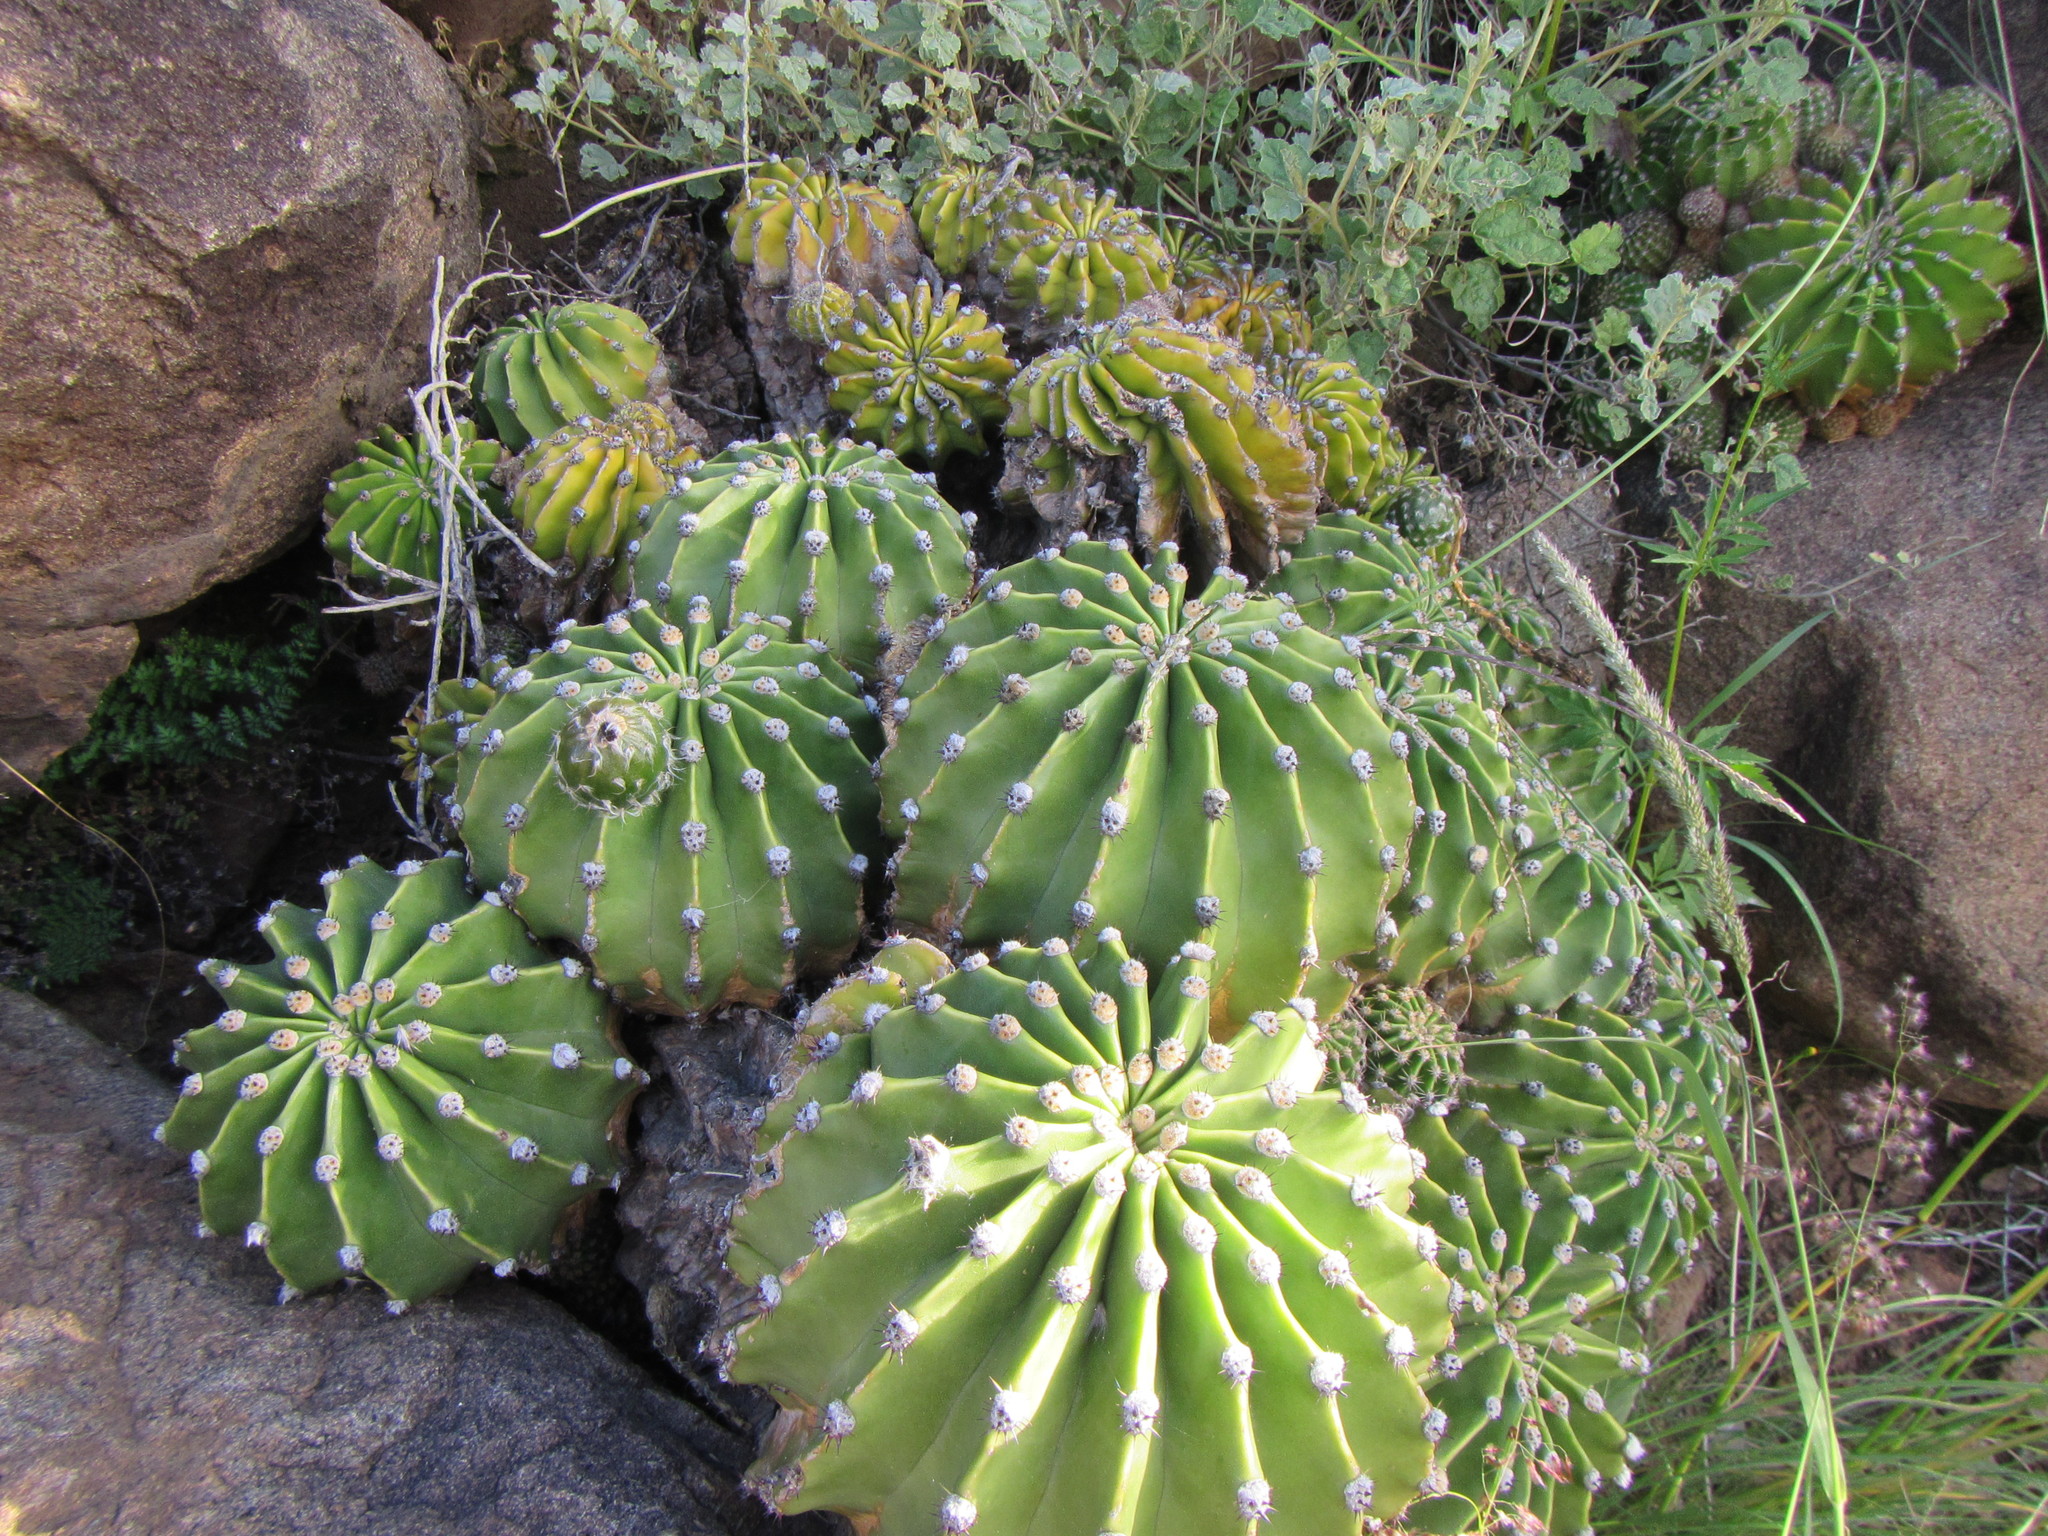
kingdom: Plantae
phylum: Tracheophyta
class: Magnoliopsida
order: Caryophyllales
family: Cactaceae
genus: Echinopsis
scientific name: Echinopsis oxygona
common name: Red easter-lily cactus
